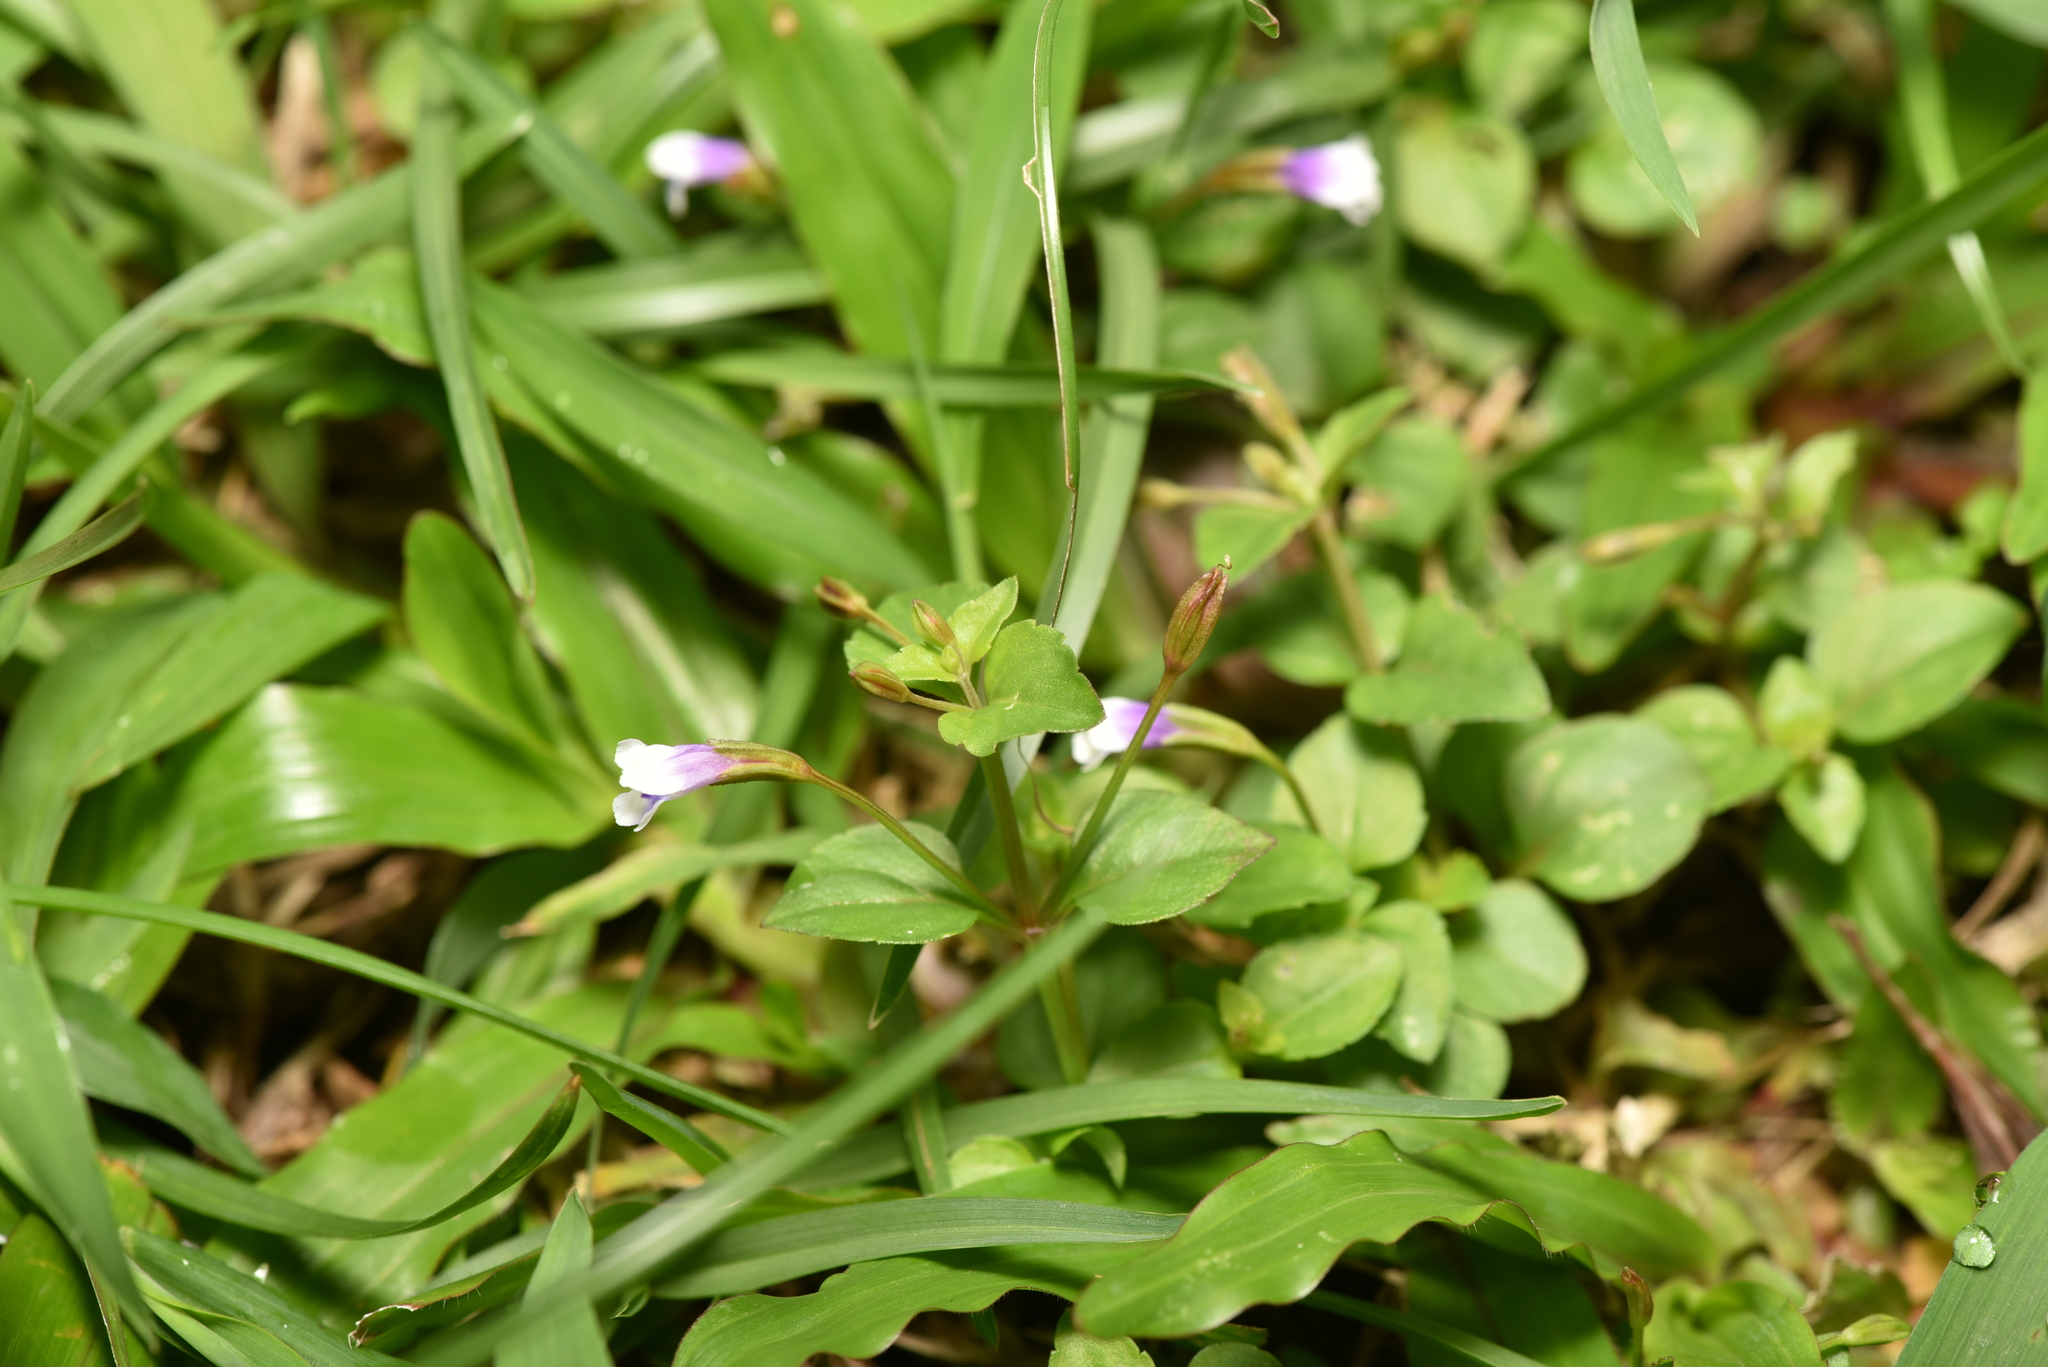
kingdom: Plantae
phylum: Tracheophyta
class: Magnoliopsida
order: Lamiales
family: Linderniaceae
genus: Torenia
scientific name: Torenia crustacea
